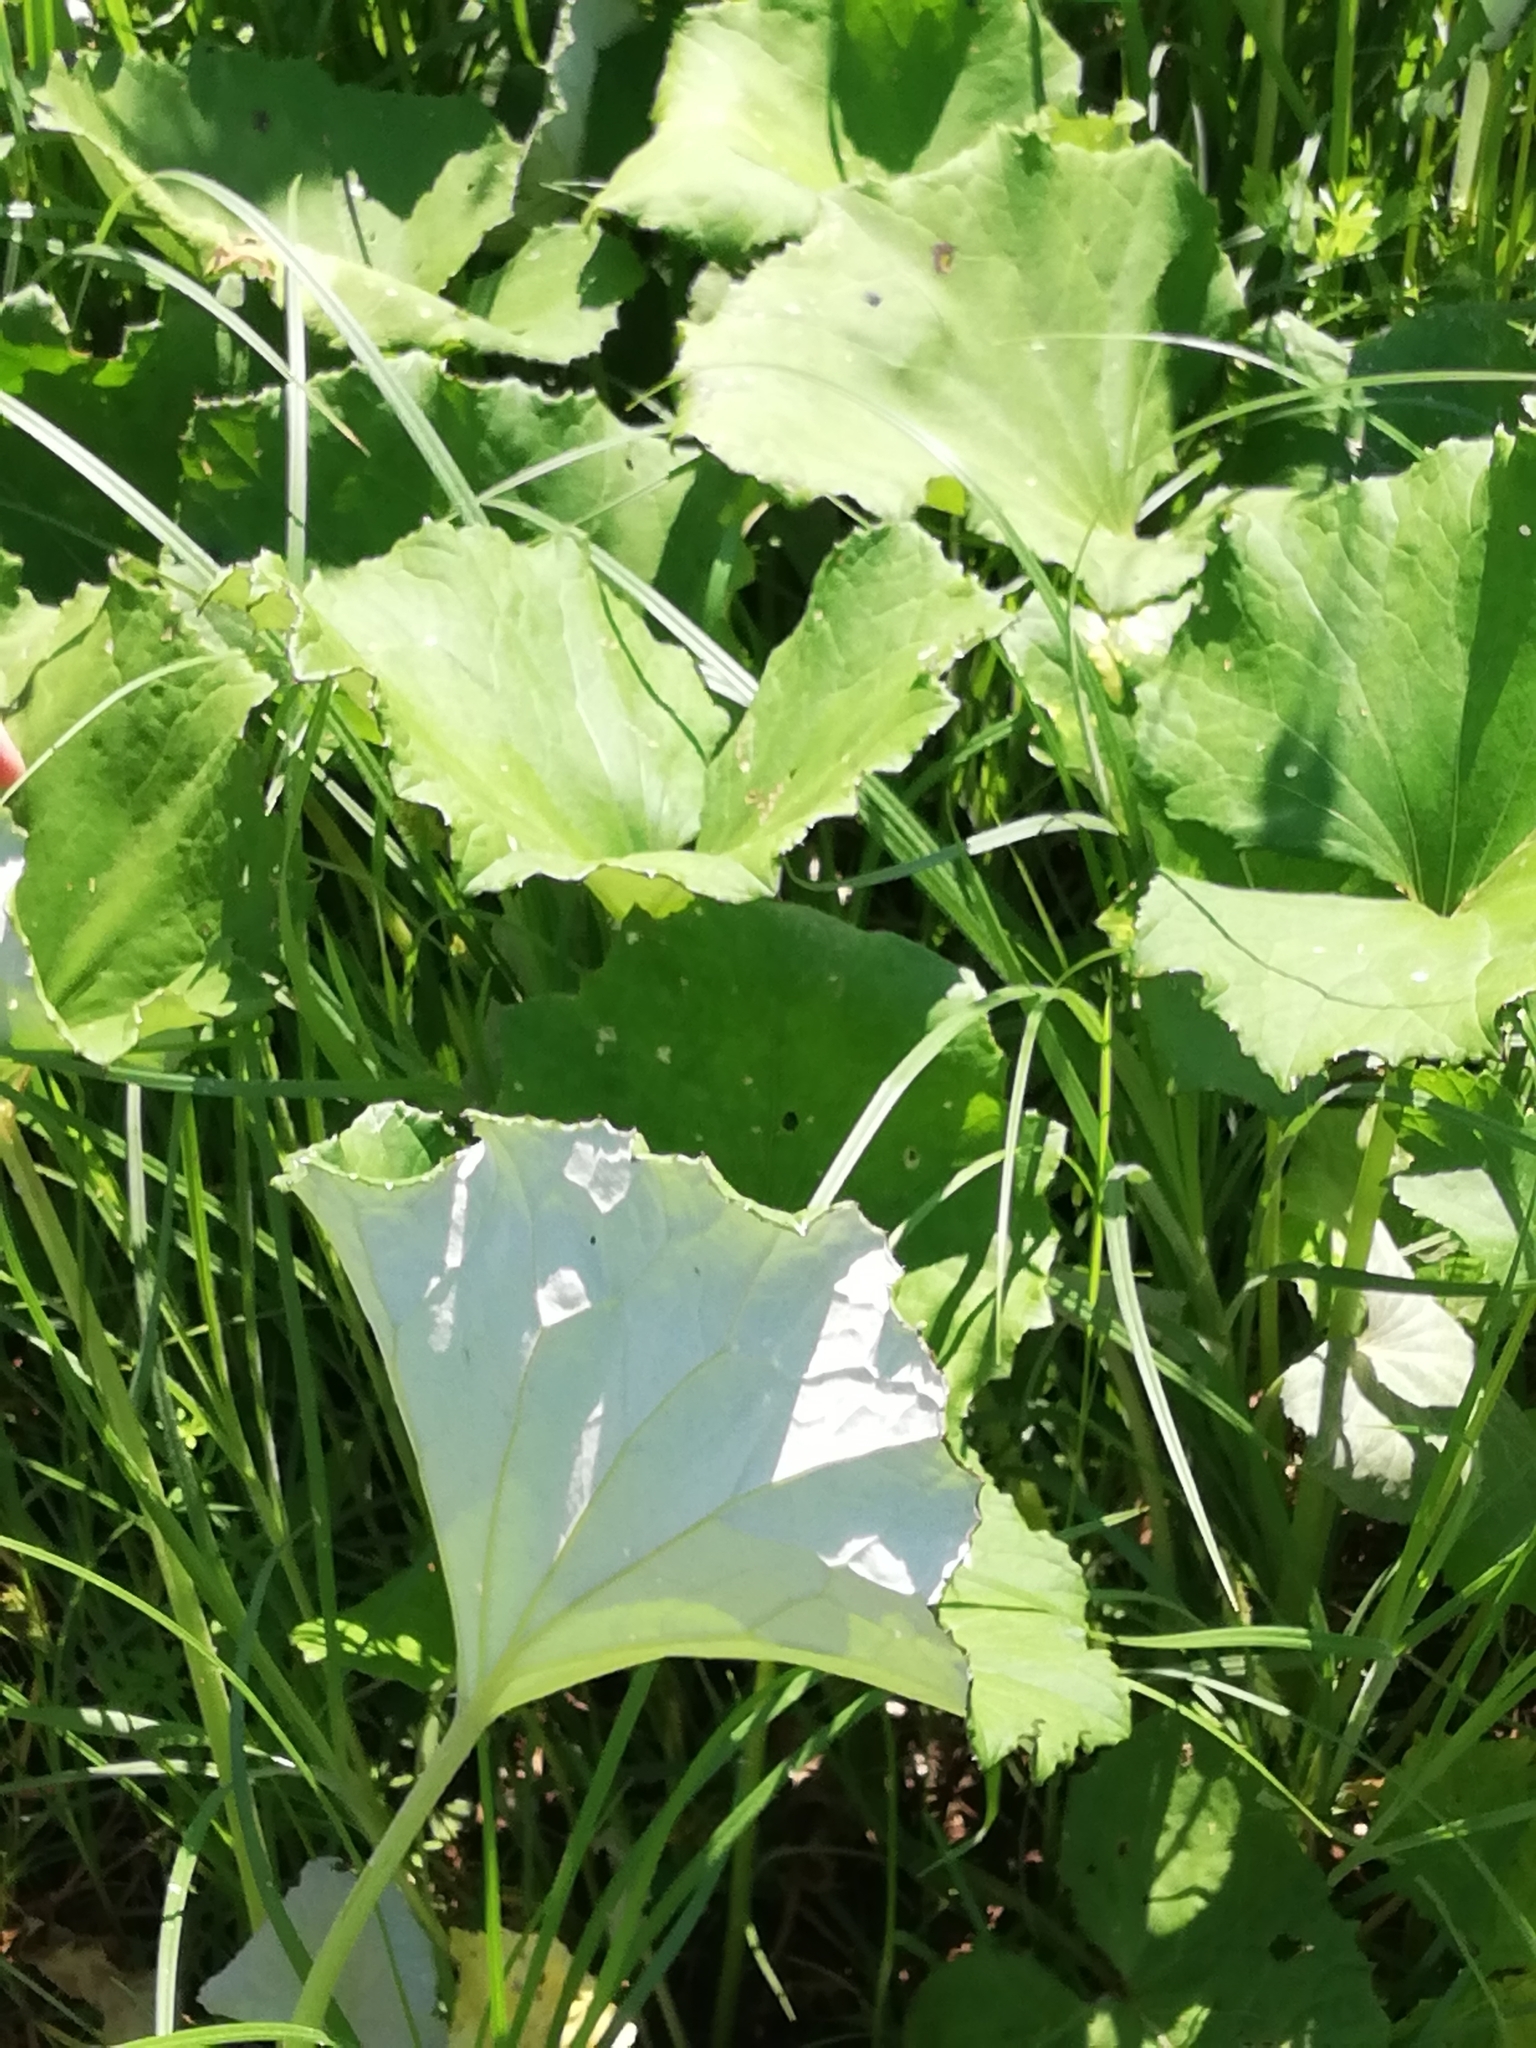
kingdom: Plantae
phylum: Tracheophyta
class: Magnoliopsida
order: Asterales
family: Asteraceae
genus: Petasites
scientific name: Petasites spurius
